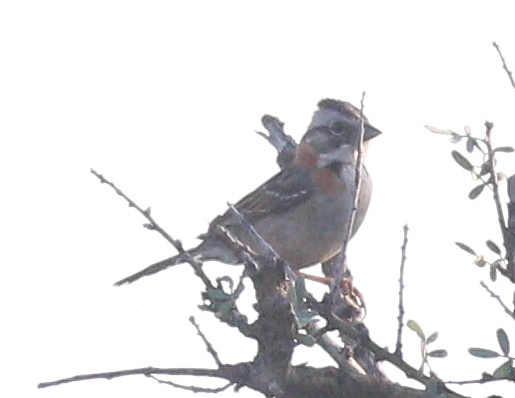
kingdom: Animalia
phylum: Chordata
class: Aves
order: Passeriformes
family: Passerellidae
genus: Zonotrichia
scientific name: Zonotrichia capensis
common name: Rufous-collared sparrow
